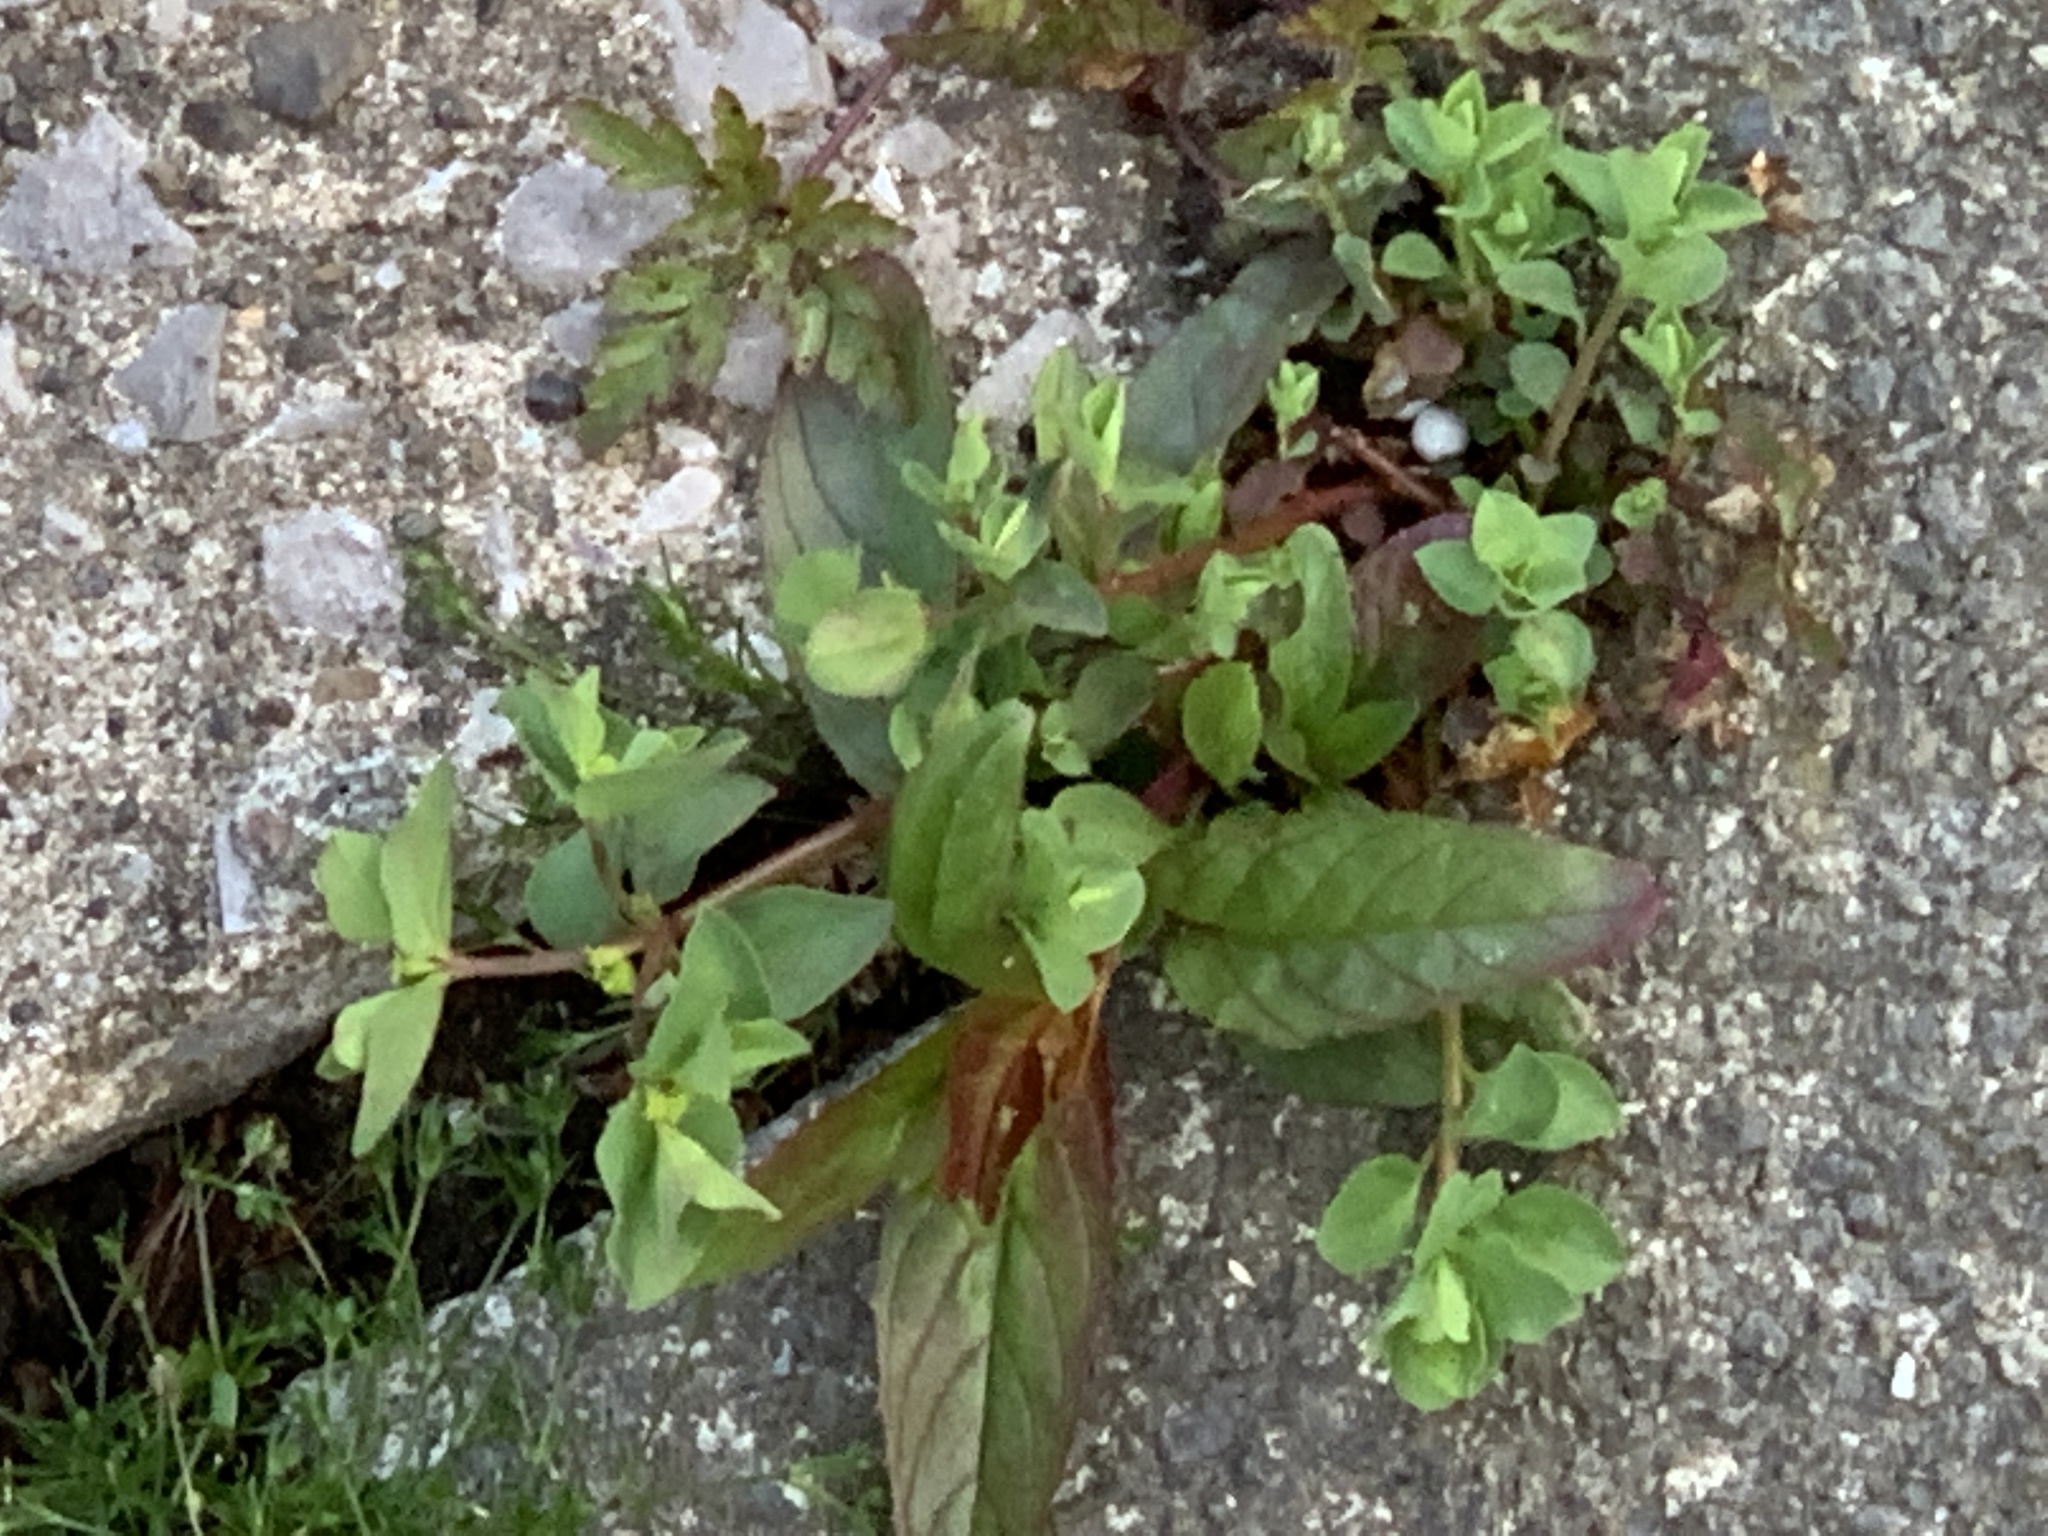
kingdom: Plantae
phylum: Tracheophyta
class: Magnoliopsida
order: Myrtales
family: Onagraceae
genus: Epilobium
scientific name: Epilobium montanum
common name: Broad-leaved willowherb
